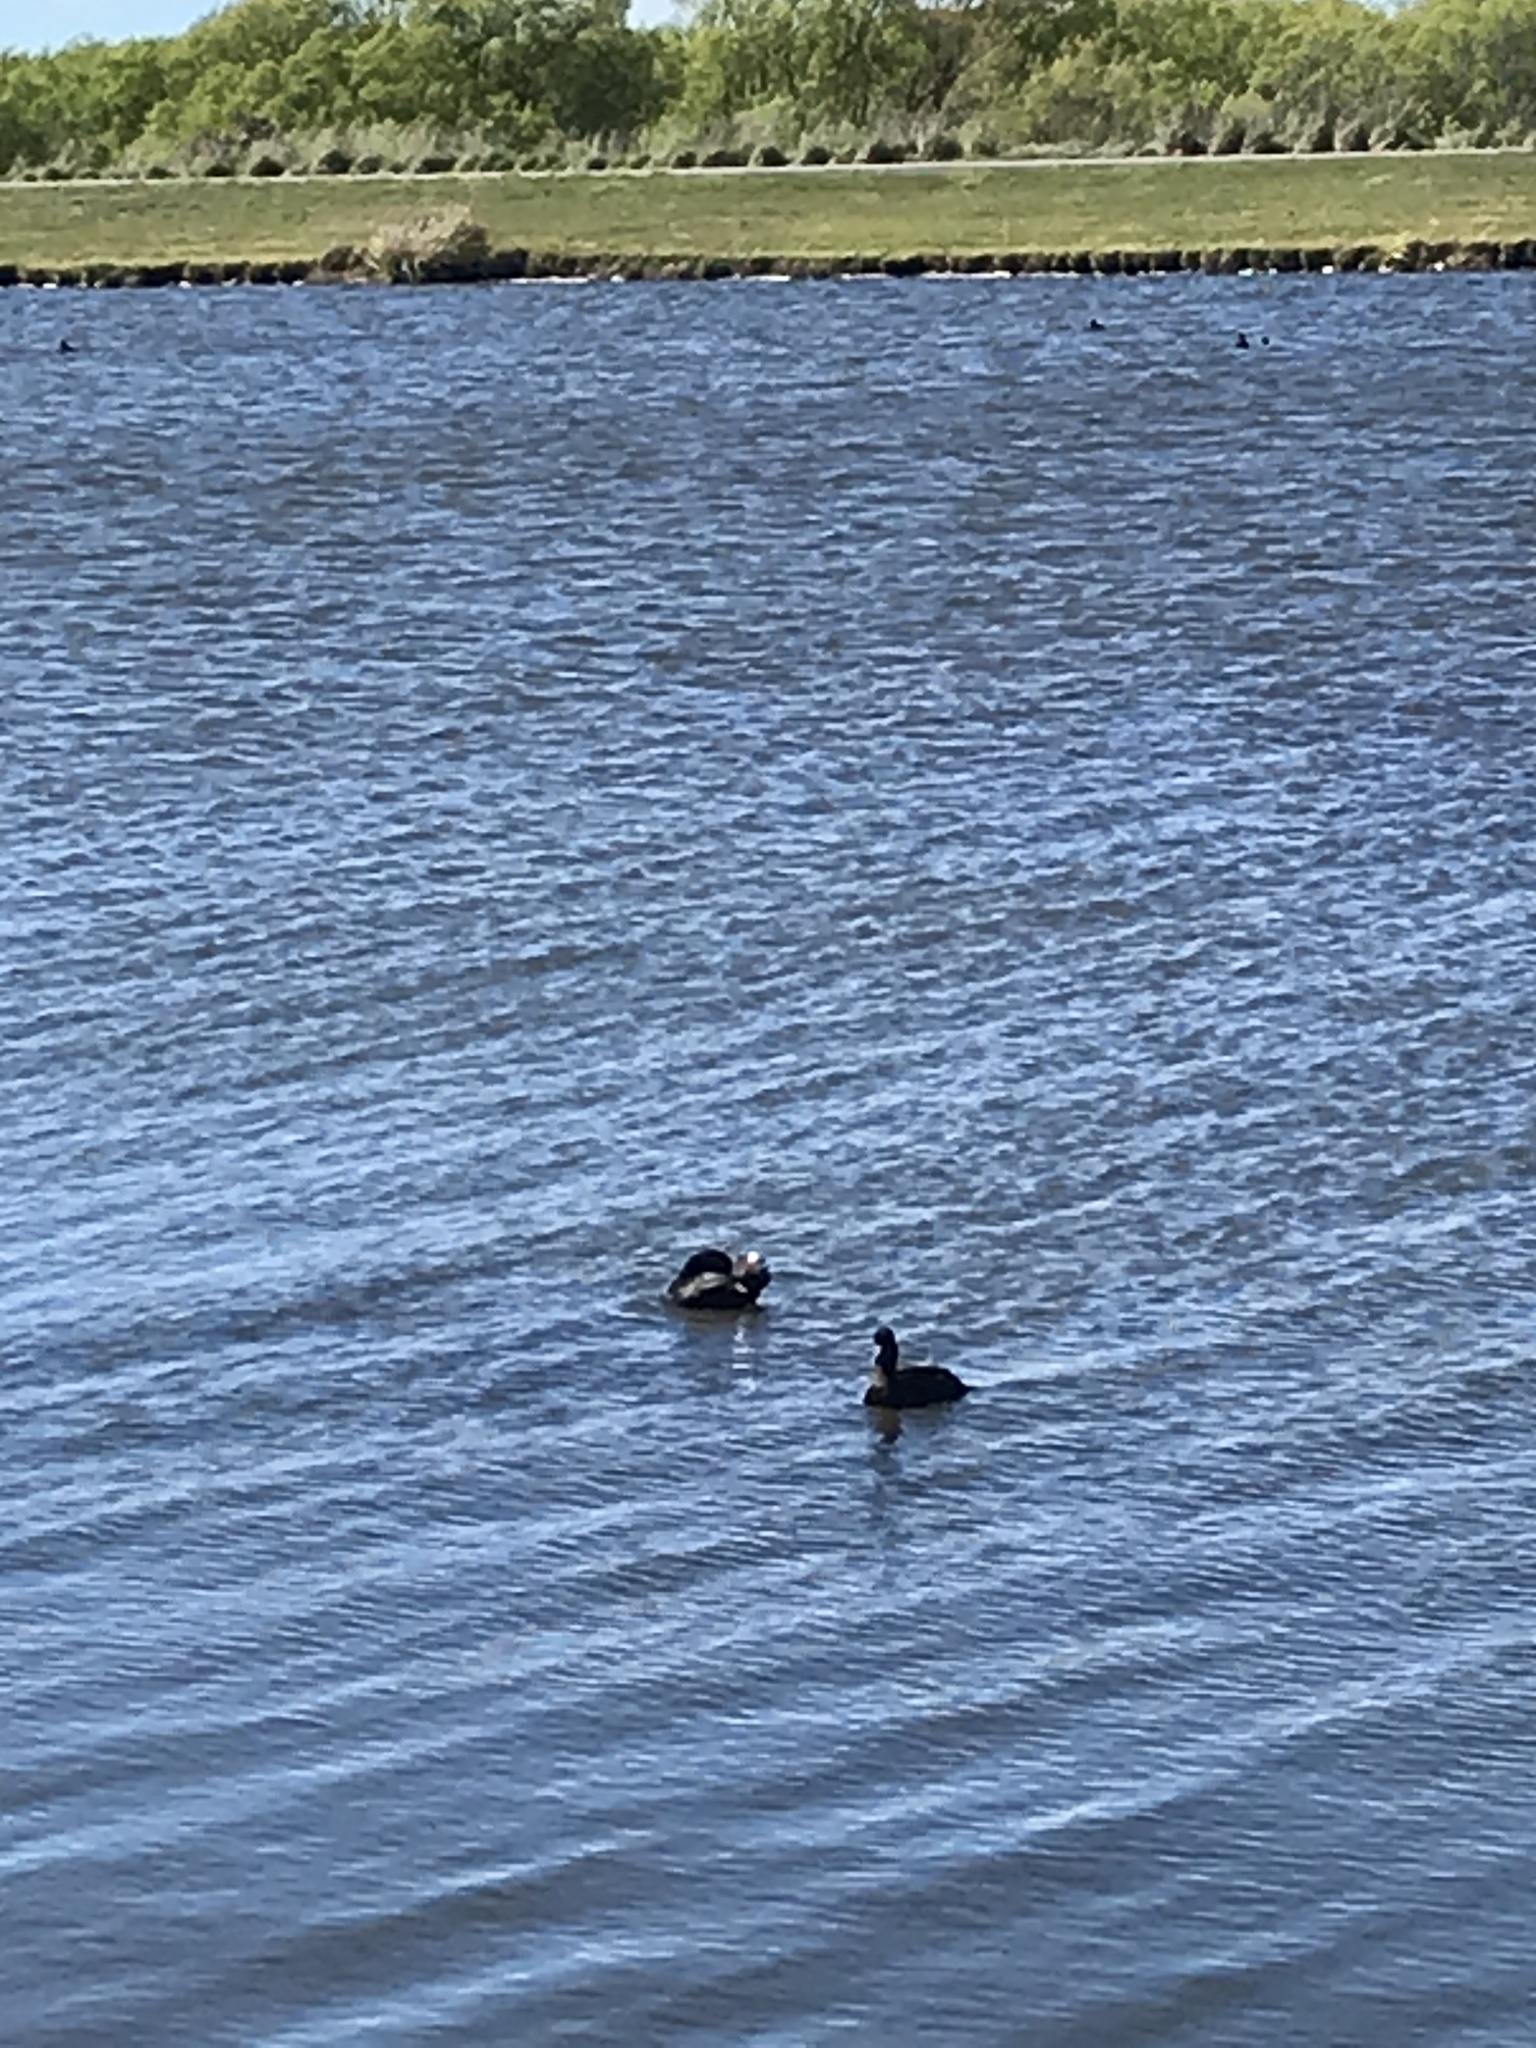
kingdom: Animalia
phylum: Chordata
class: Aves
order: Anseriformes
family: Anatidae
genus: Aythya
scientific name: Aythya novaeseelandiae
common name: New zealand scaup
